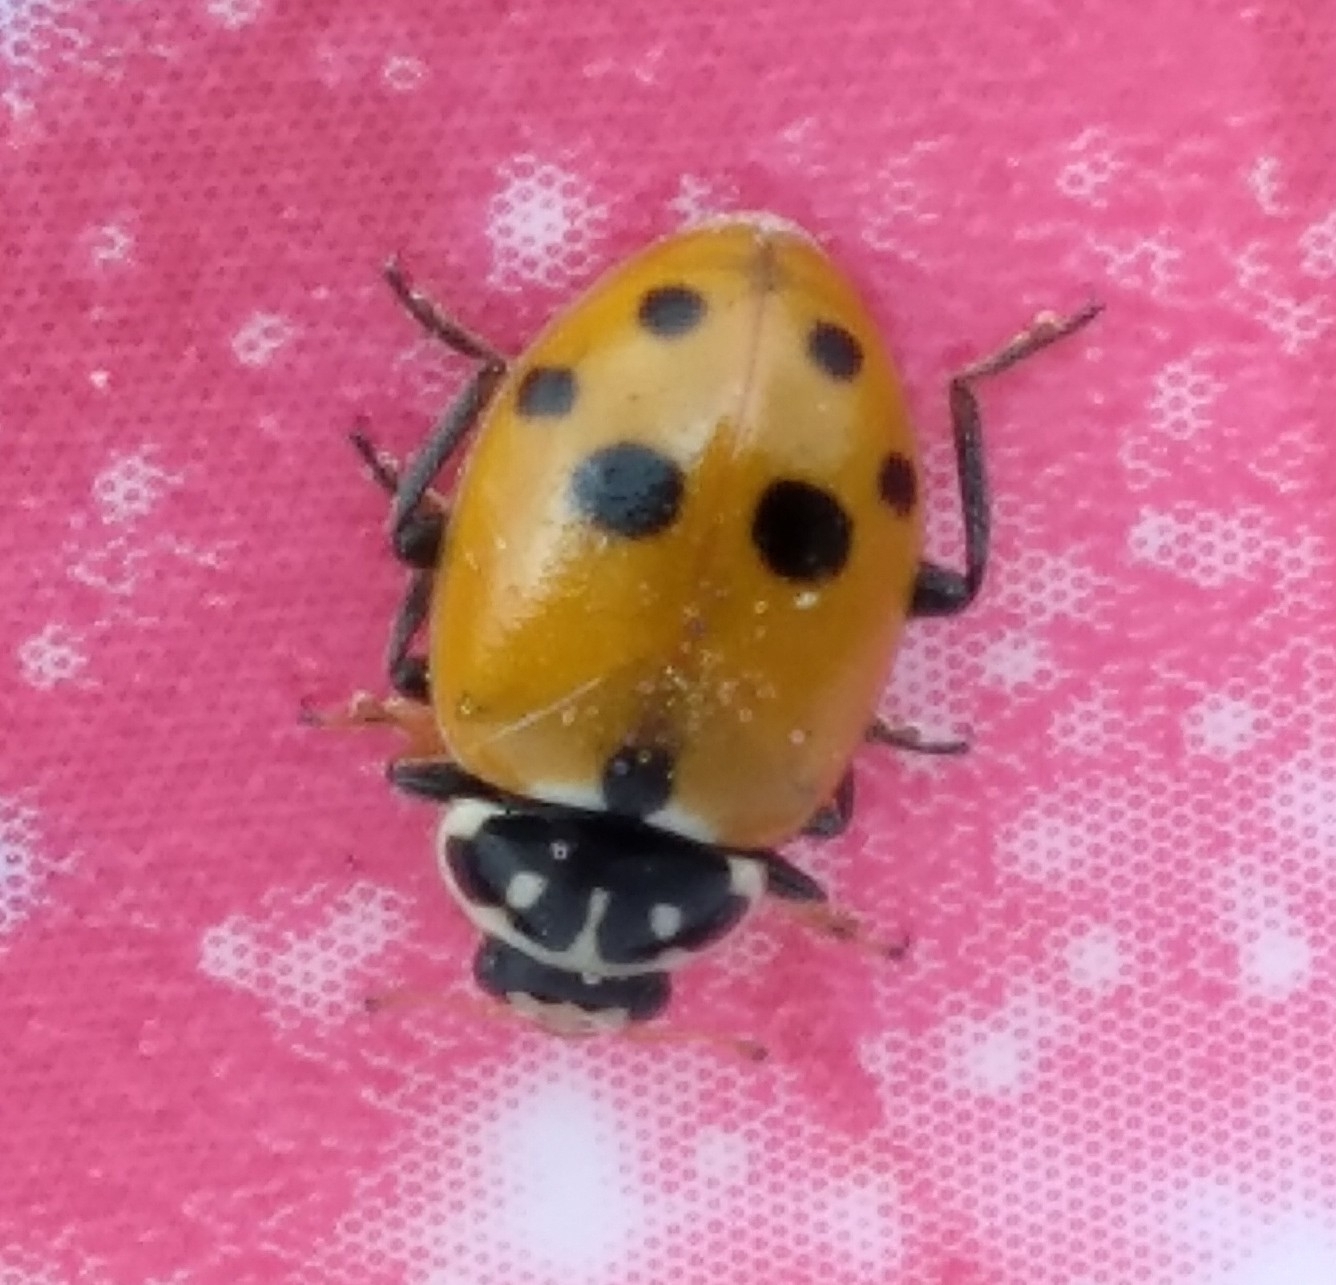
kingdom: Animalia
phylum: Arthropoda
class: Insecta
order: Coleoptera
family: Coccinellidae
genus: Hippodamia
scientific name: Hippodamia variegata
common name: Ladybird beetle
